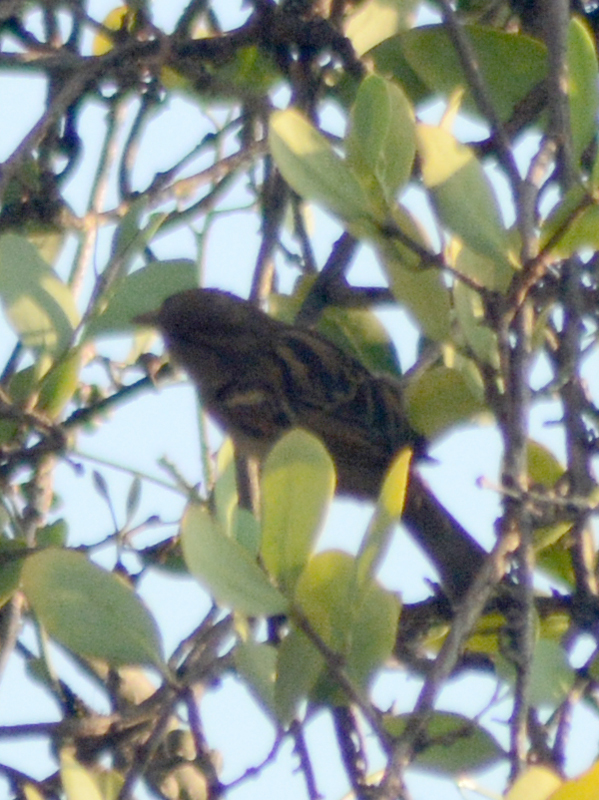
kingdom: Animalia
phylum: Chordata
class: Aves
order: Passeriformes
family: Passeridae
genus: Passer
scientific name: Passer domesticus
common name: House sparrow
